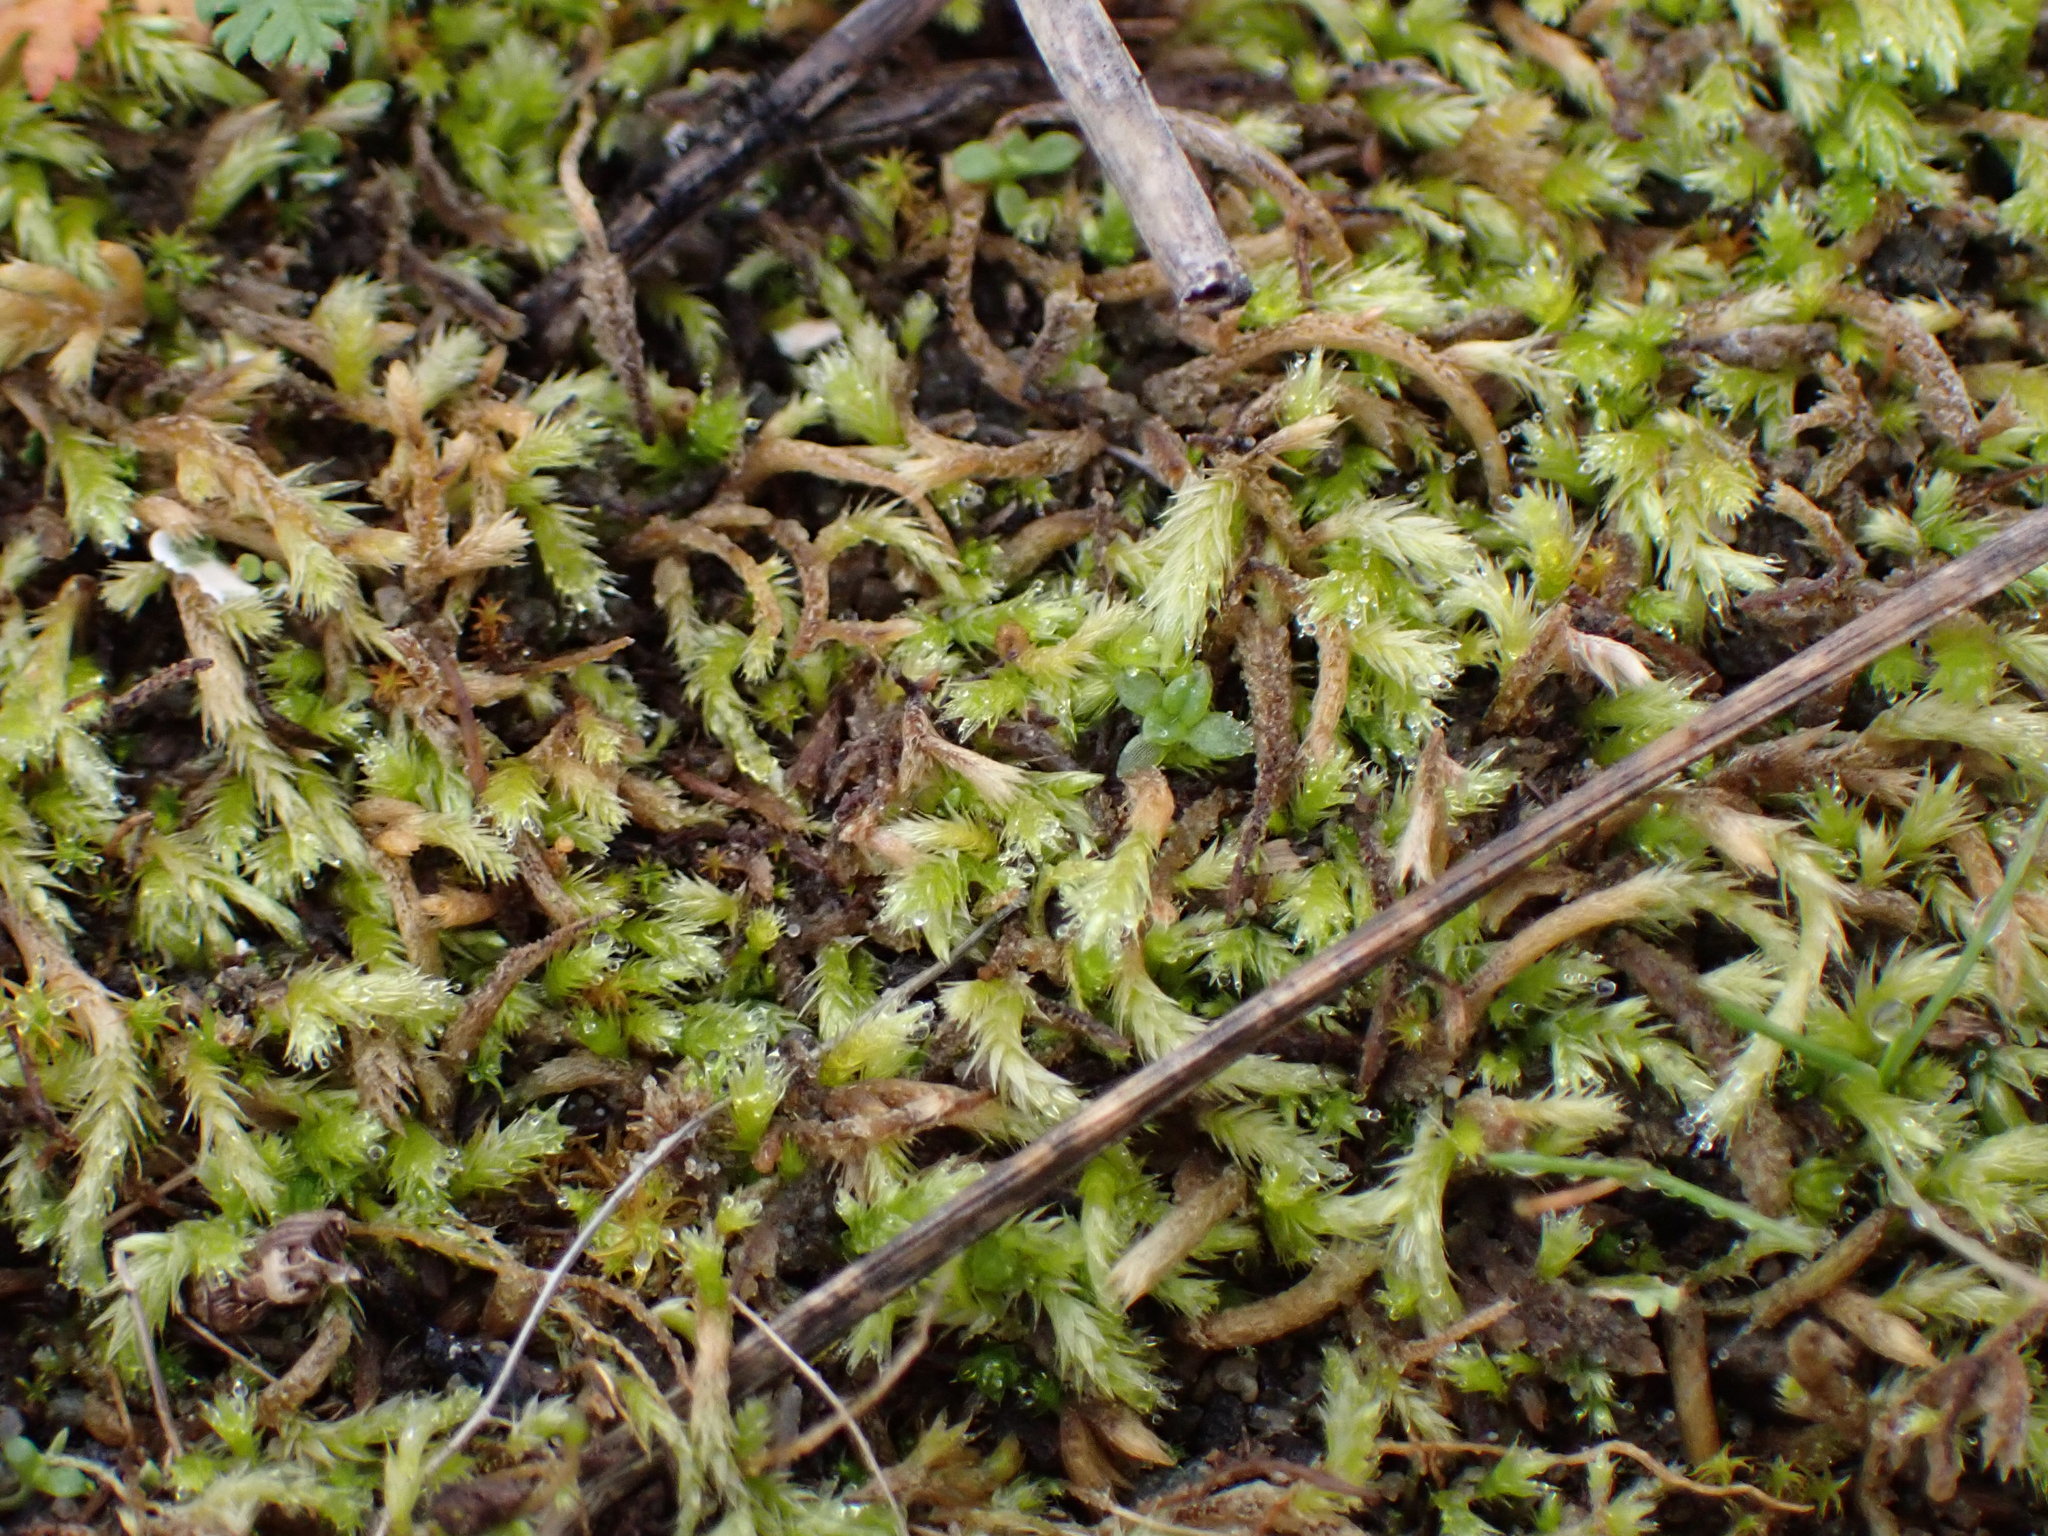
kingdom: Plantae
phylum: Bryophyta
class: Bryopsida
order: Hypnales
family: Brachytheciaceae
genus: Homalothecium
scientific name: Homalothecium arenarium
